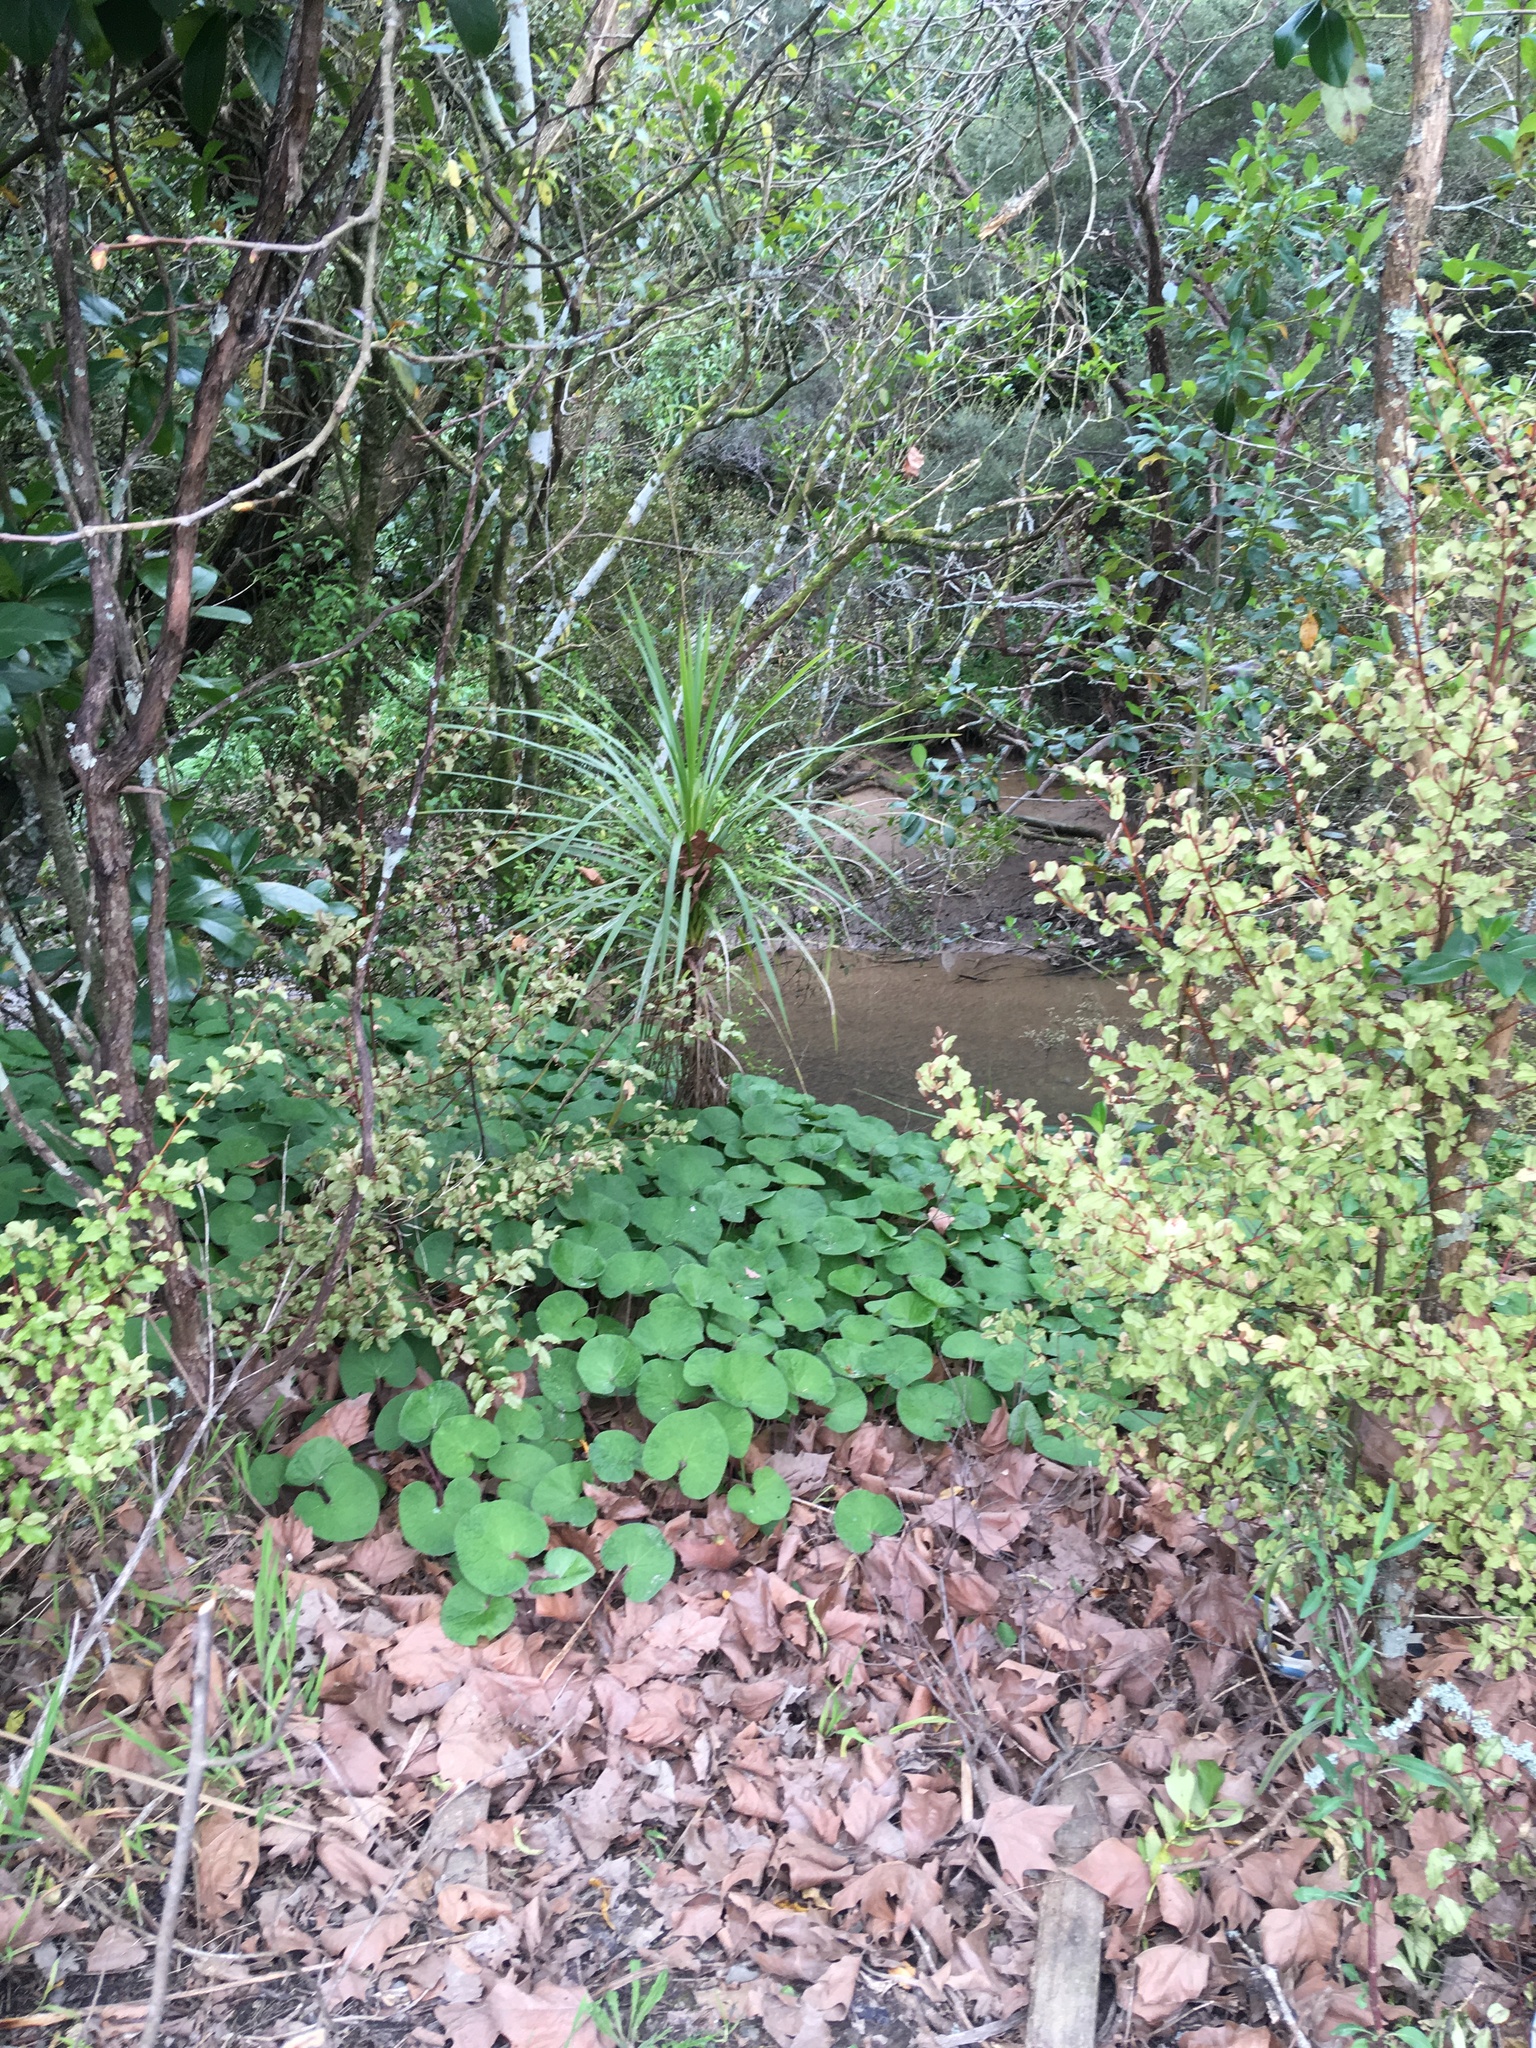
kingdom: Plantae
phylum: Tracheophyta
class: Liliopsida
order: Asparagales
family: Asparagaceae
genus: Cordyline
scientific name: Cordyline australis
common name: Cabbage-palm
